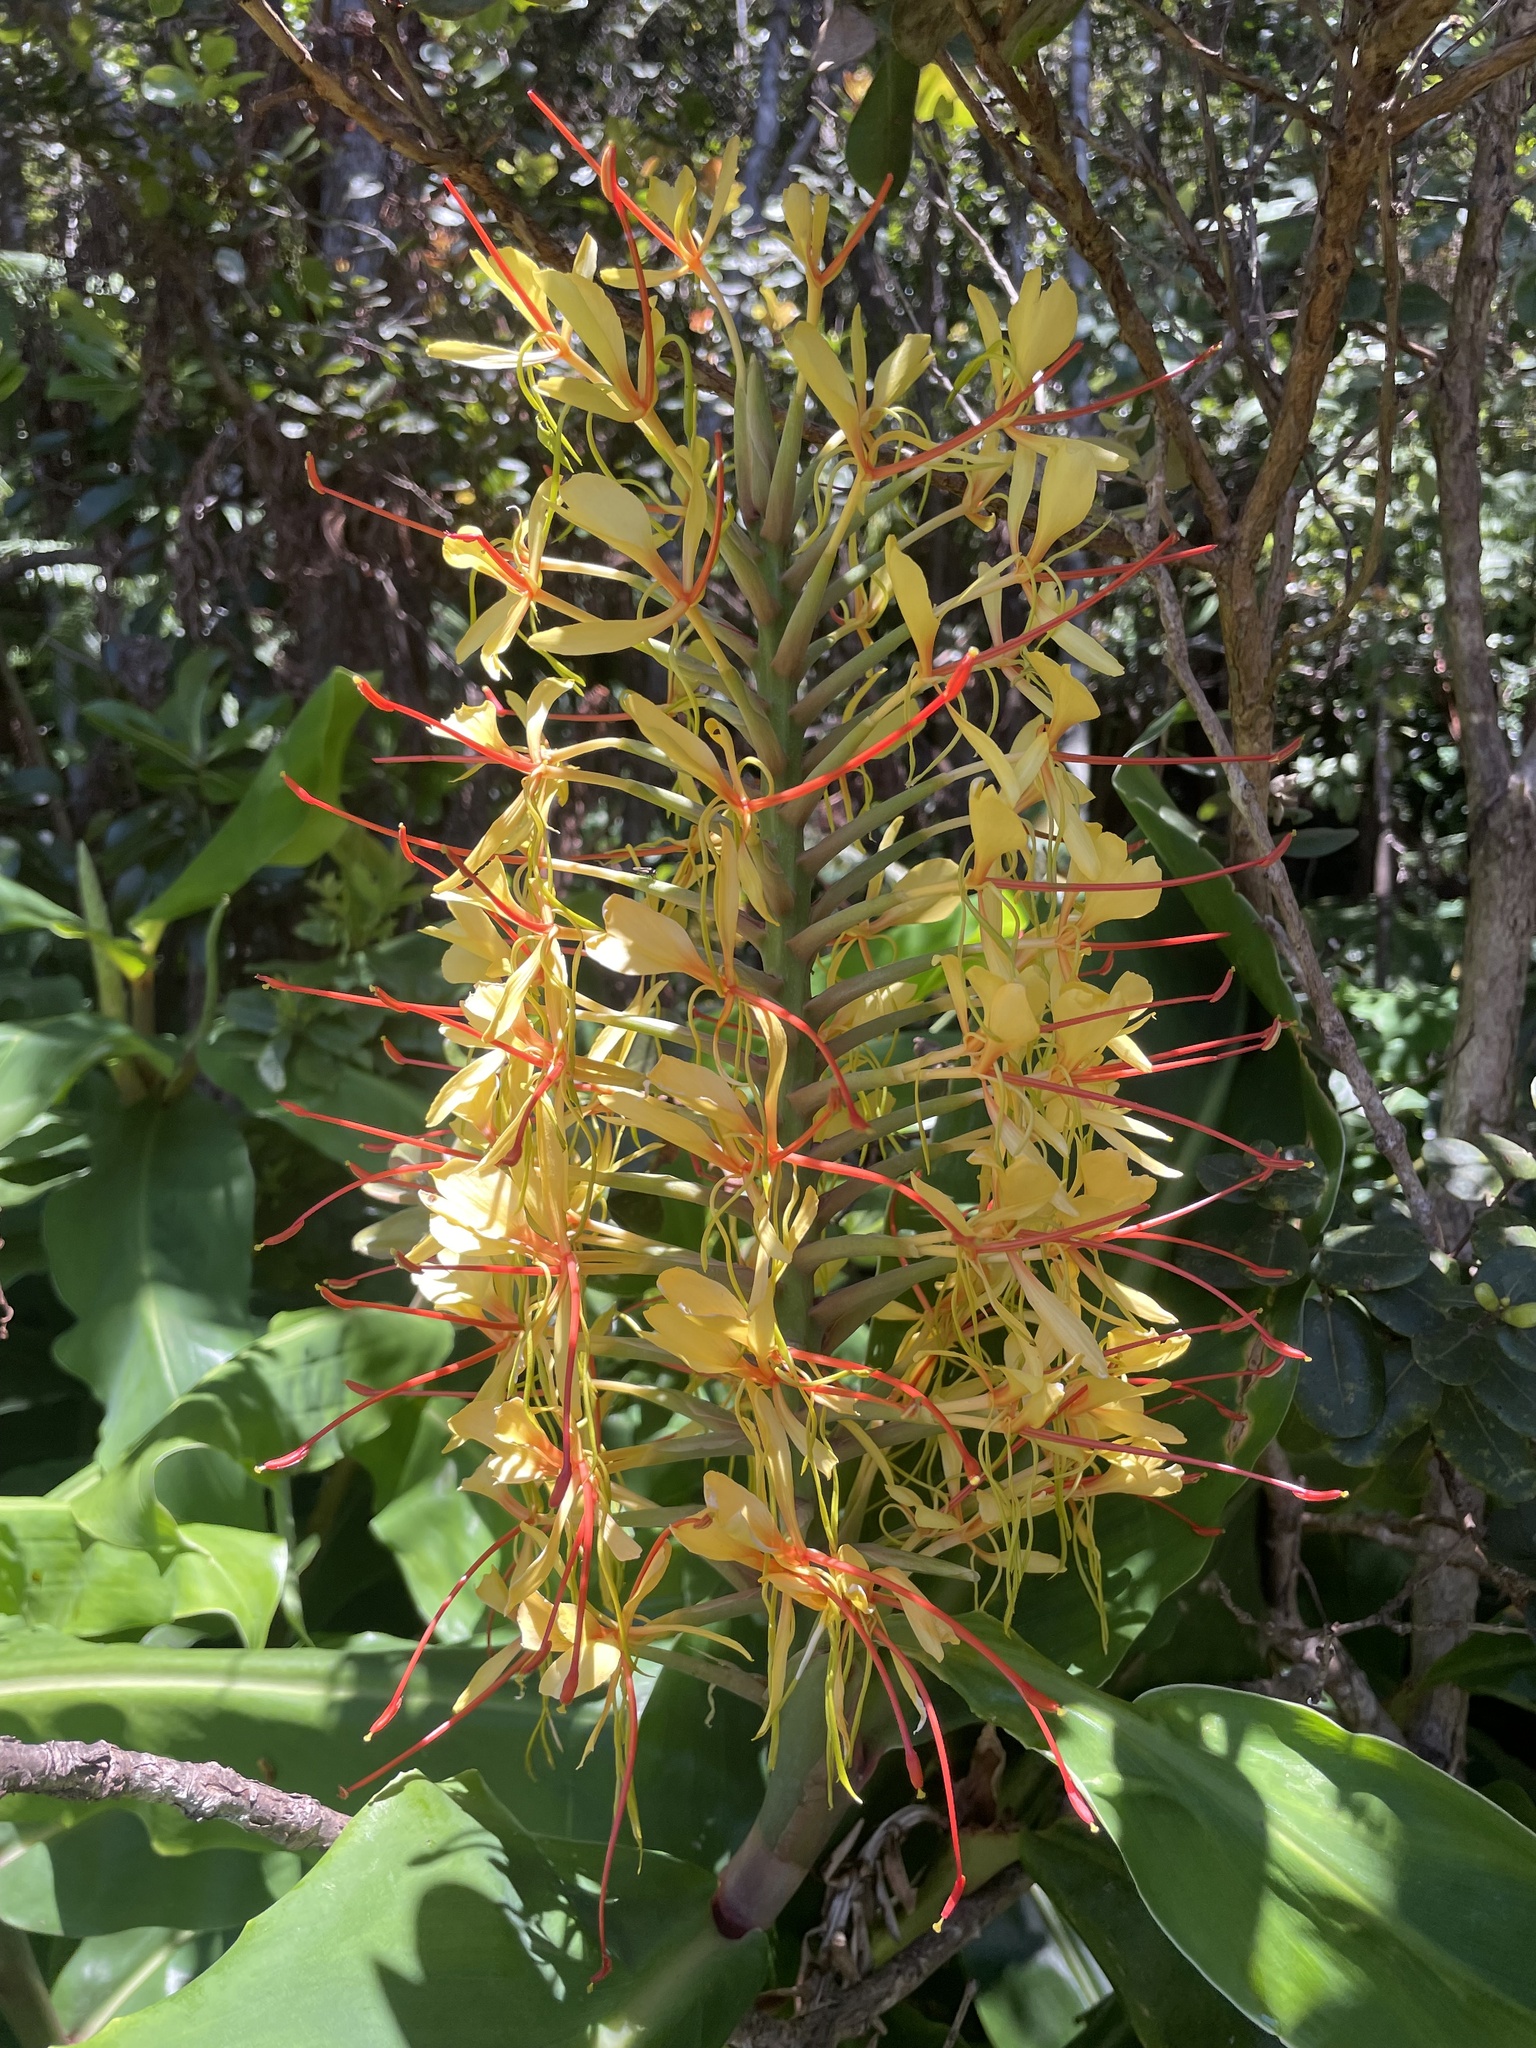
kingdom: Plantae
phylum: Tracheophyta
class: Liliopsida
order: Zingiberales
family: Zingiberaceae
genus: Hedychium
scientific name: Hedychium gardnerianum
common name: Himalayan ginger
